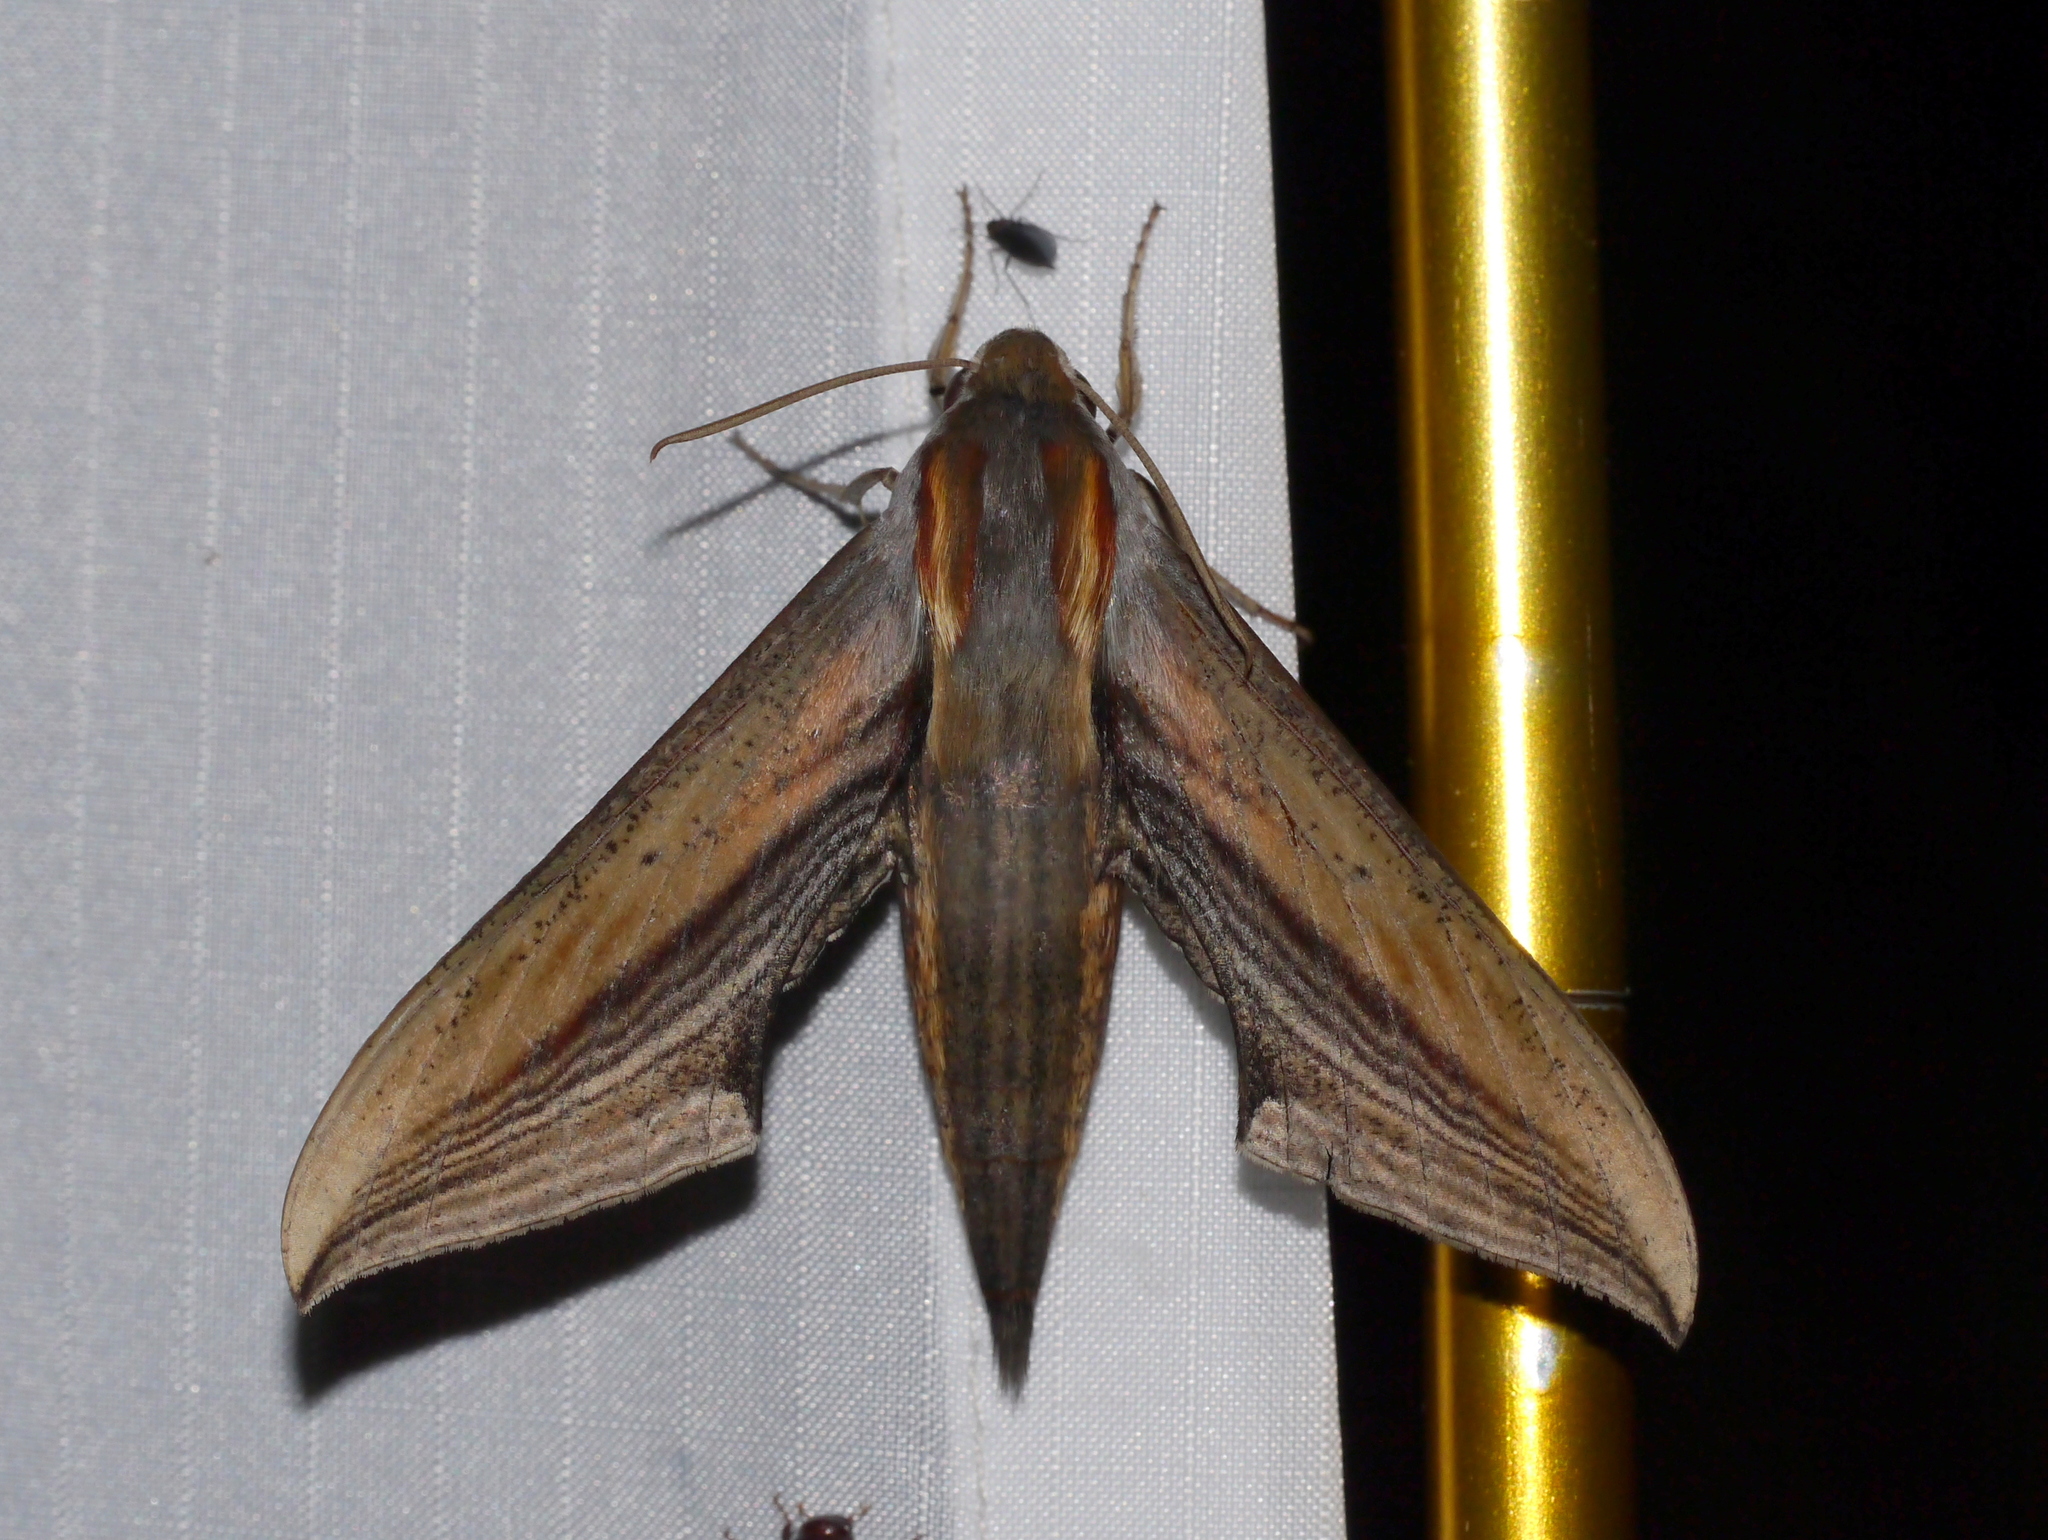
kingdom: Animalia
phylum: Arthropoda
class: Insecta
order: Lepidoptera
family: Sphingidae
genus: Xylophanes
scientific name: Xylophanes falco
